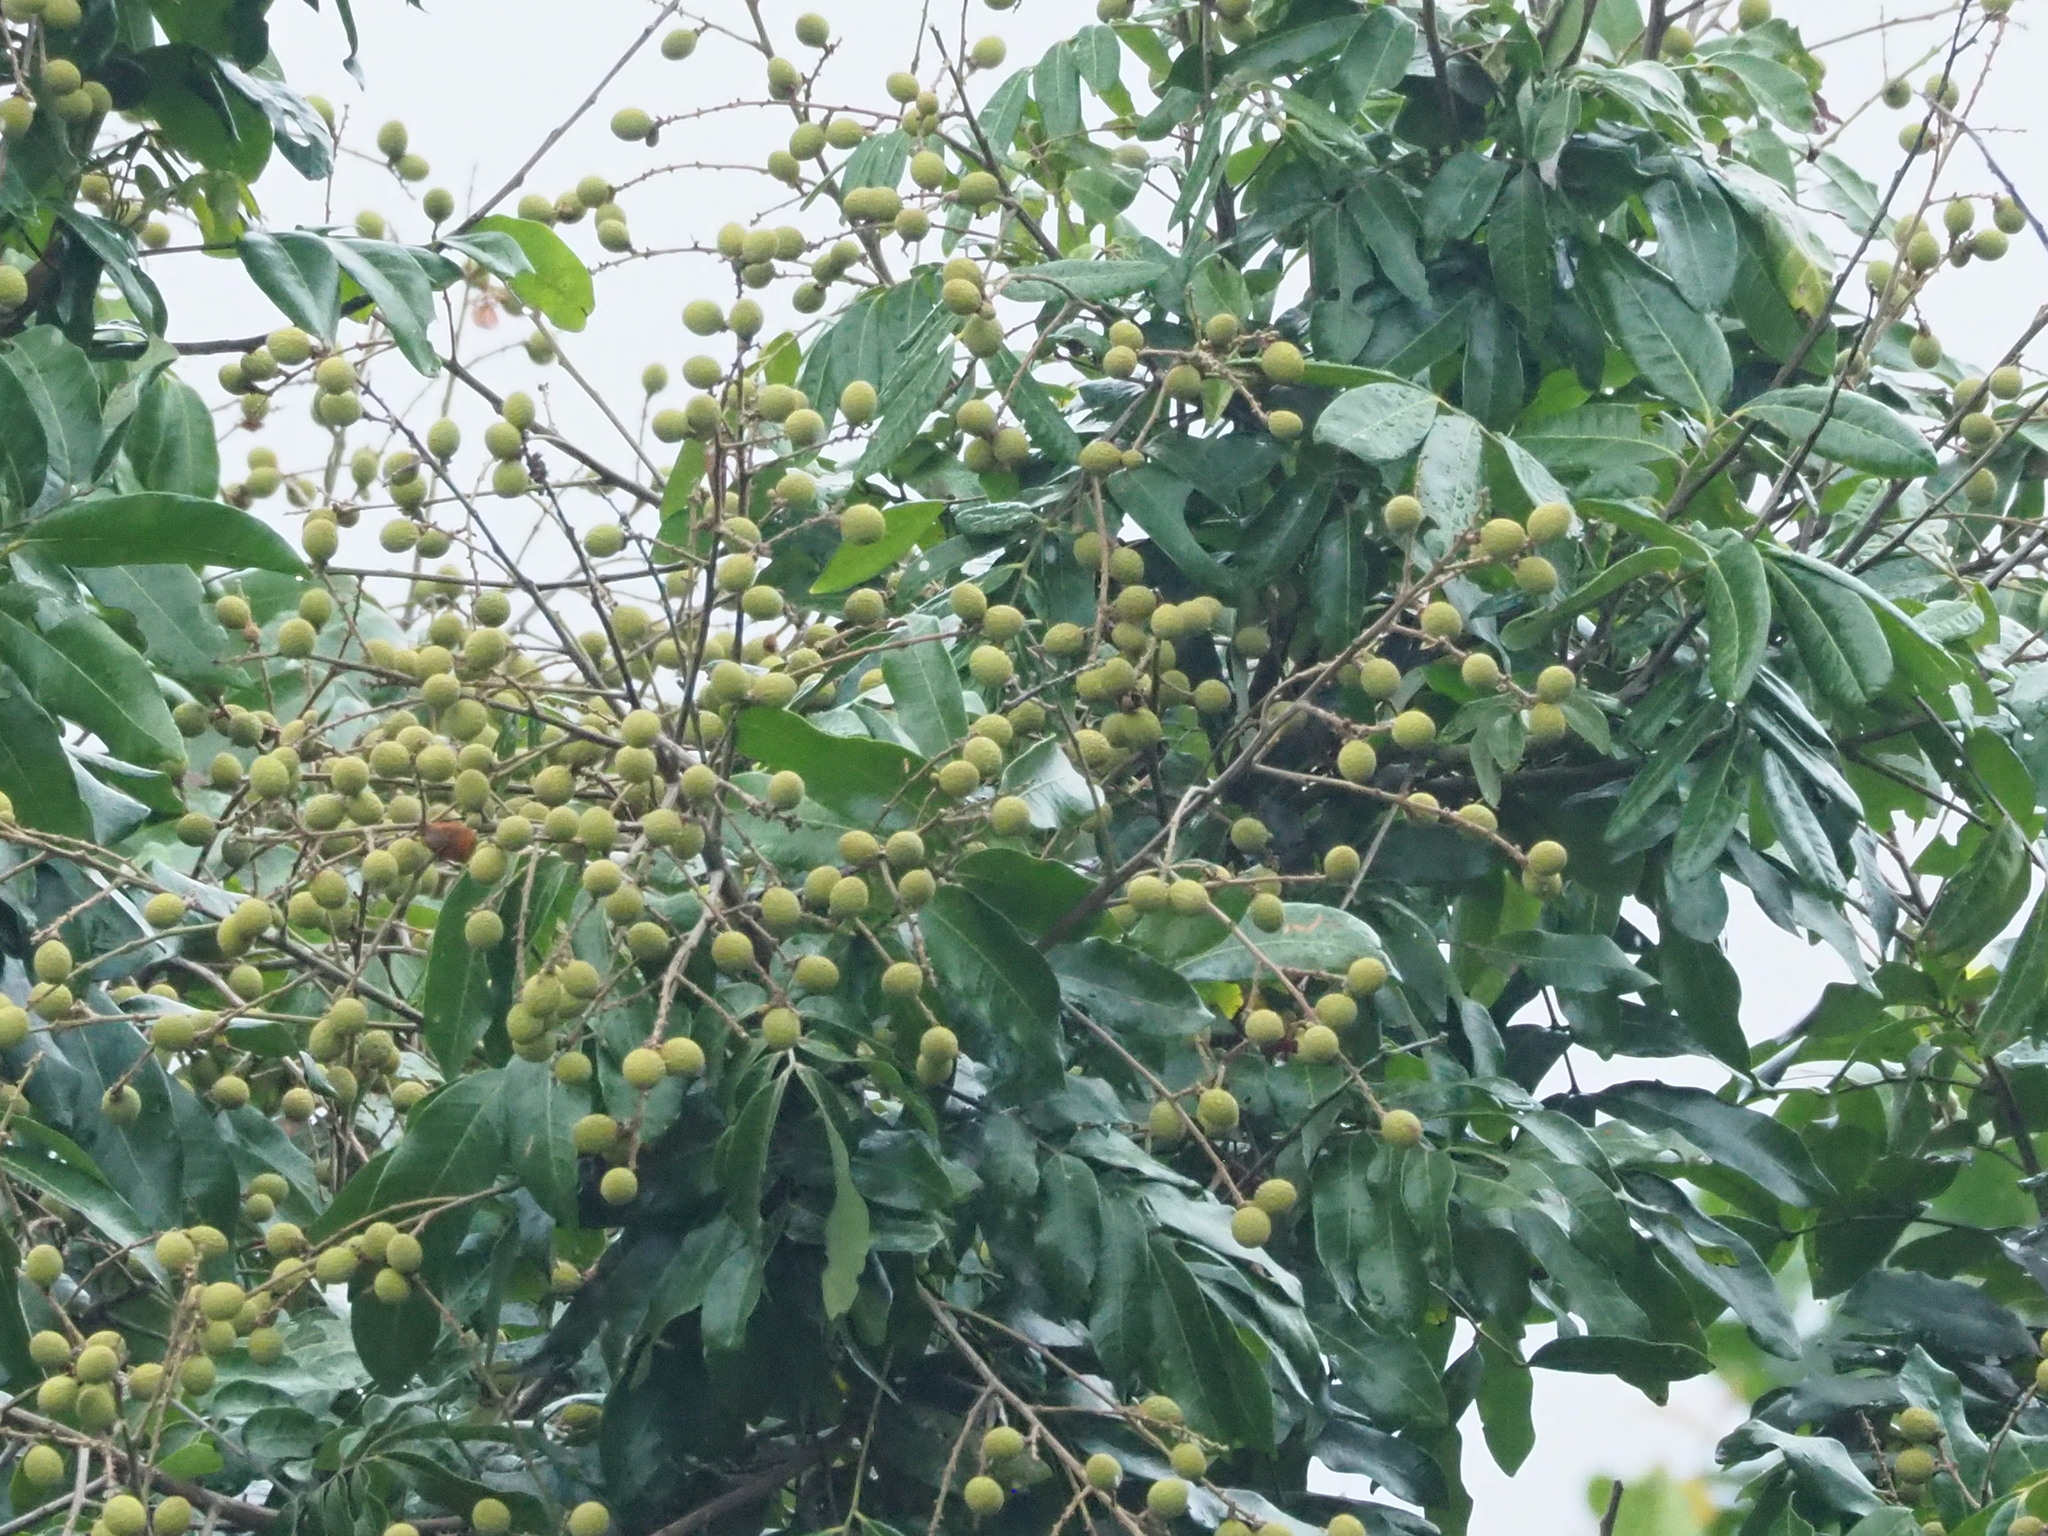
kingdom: Plantae
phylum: Tracheophyta
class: Magnoliopsida
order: Sapindales
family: Sapindaceae
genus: Dimocarpus
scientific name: Dimocarpus longan
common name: Longan
